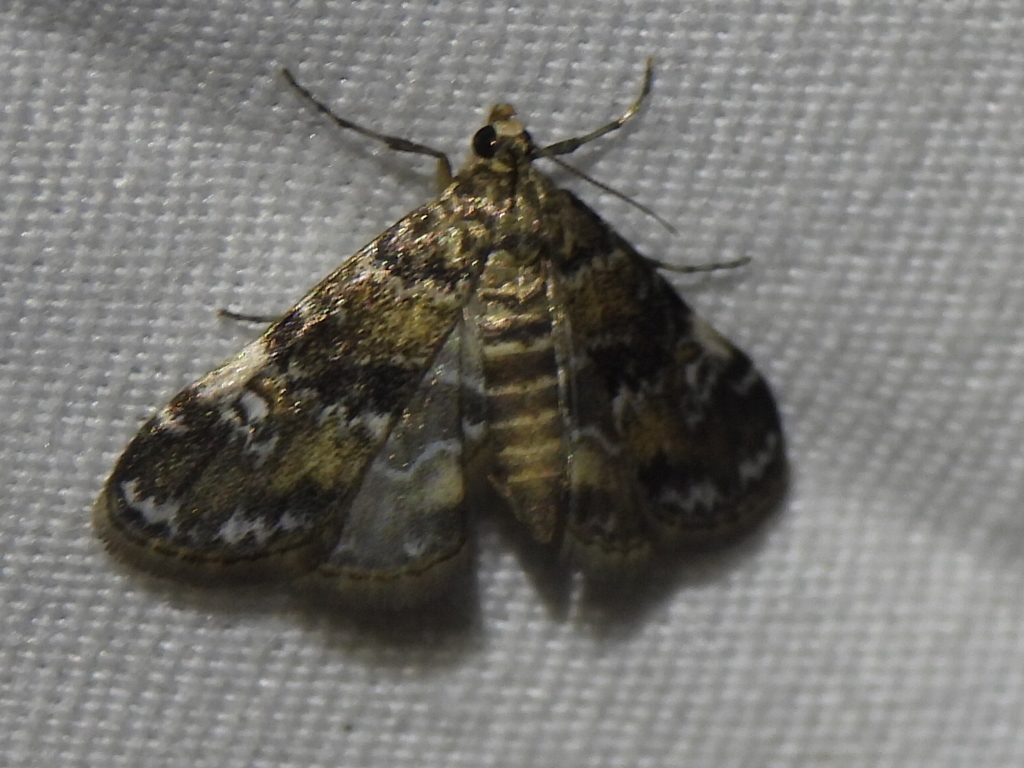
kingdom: Animalia
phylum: Arthropoda
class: Insecta
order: Lepidoptera
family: Crambidae
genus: Elophila
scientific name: Elophila obliteralis
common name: Waterlily leafcutter moth
